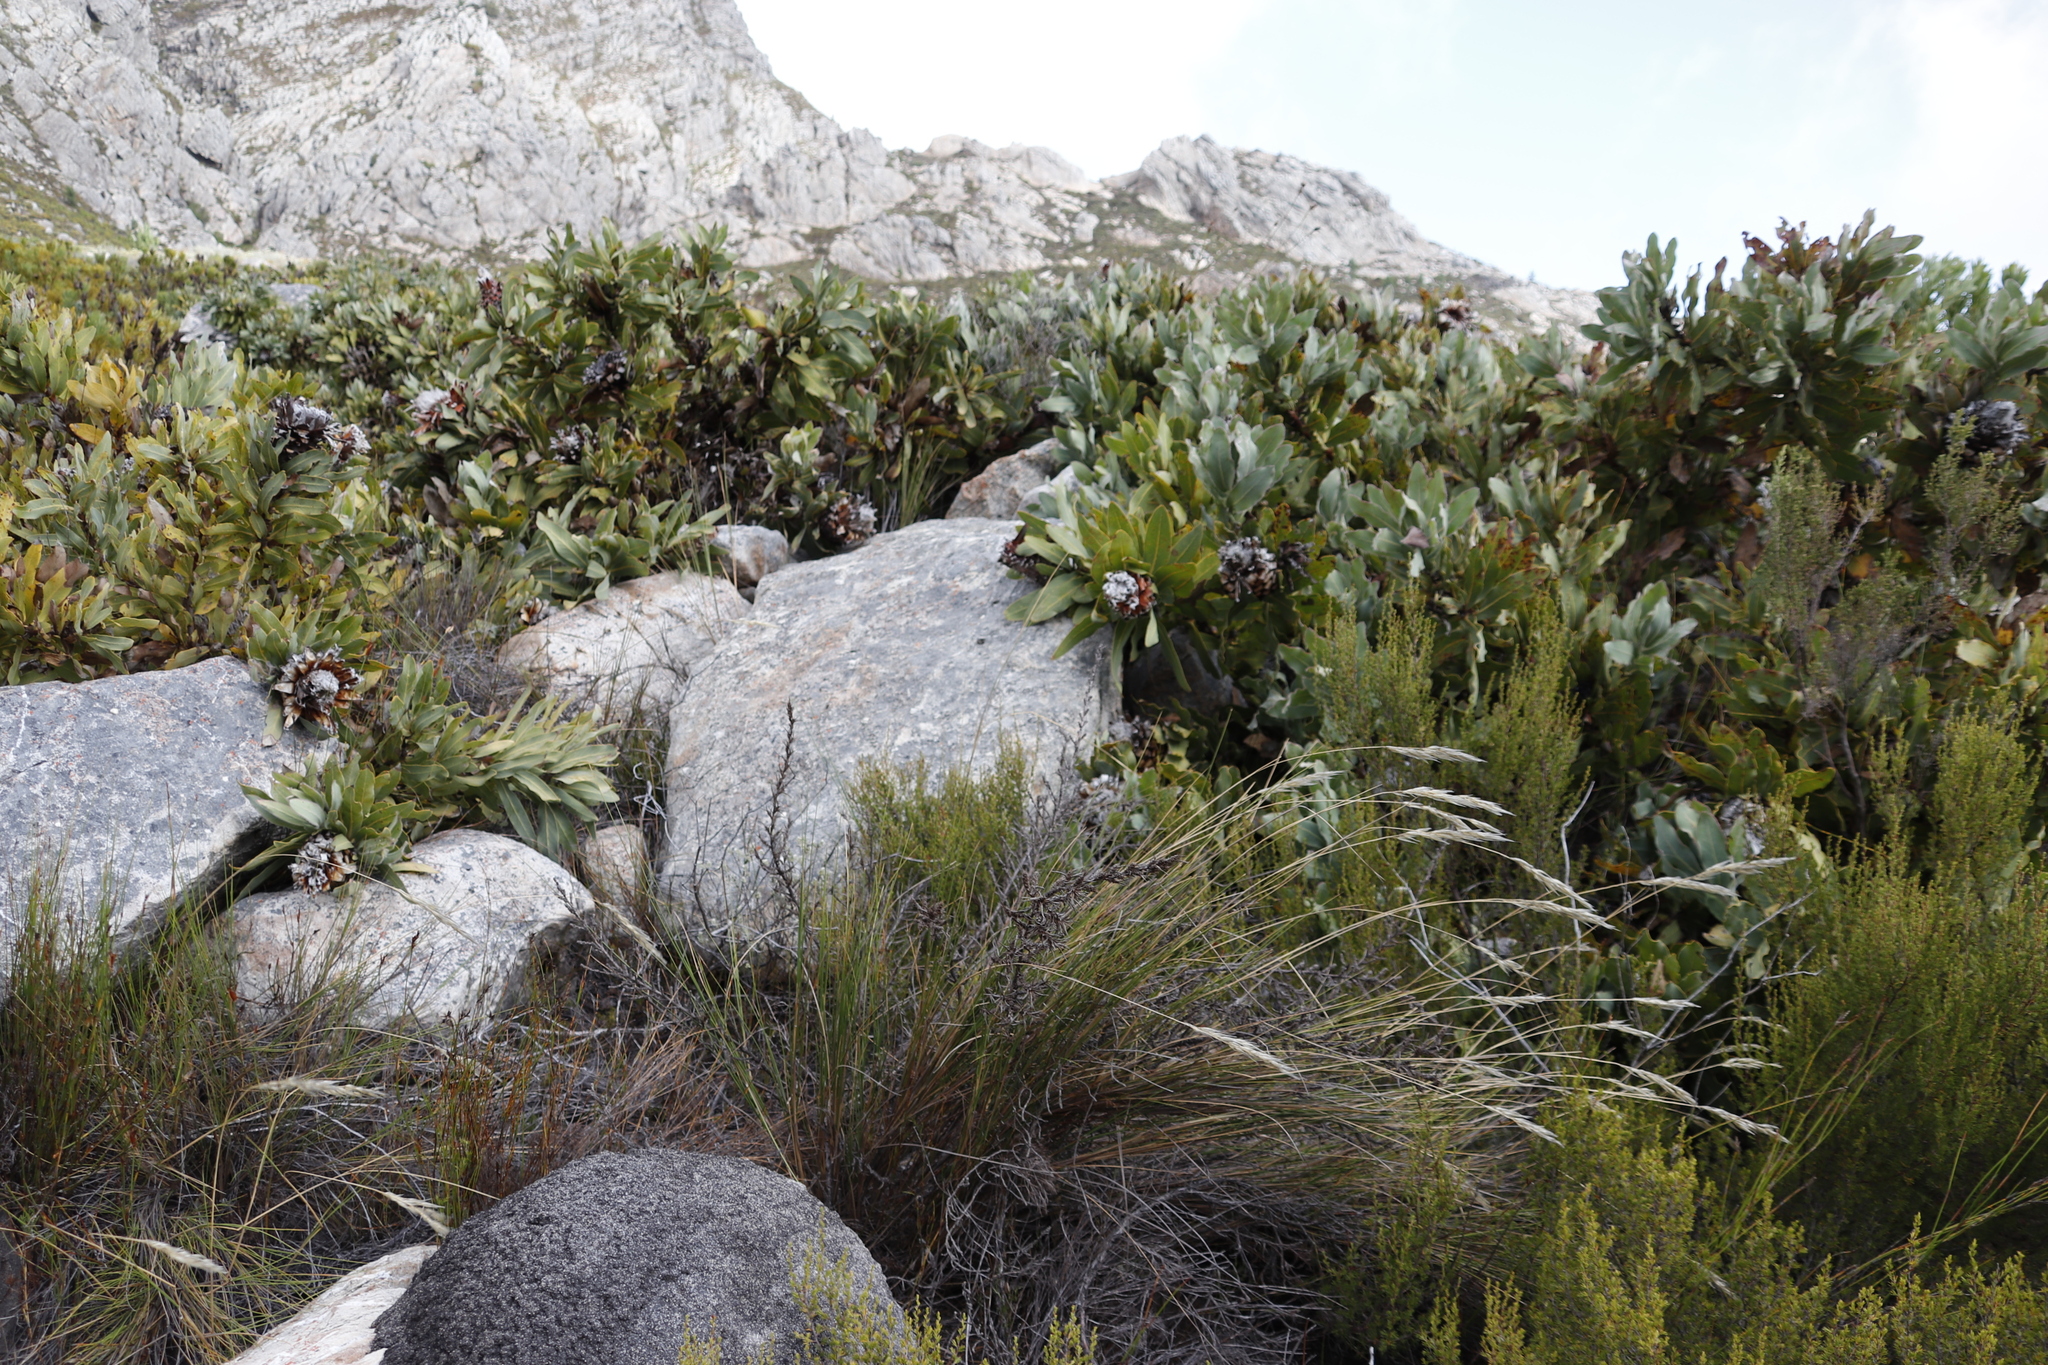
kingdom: Plantae
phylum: Tracheophyta
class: Magnoliopsida
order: Proteales
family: Proteaceae
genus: Protea
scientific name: Protea magnifica
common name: Bearded sugarbush
